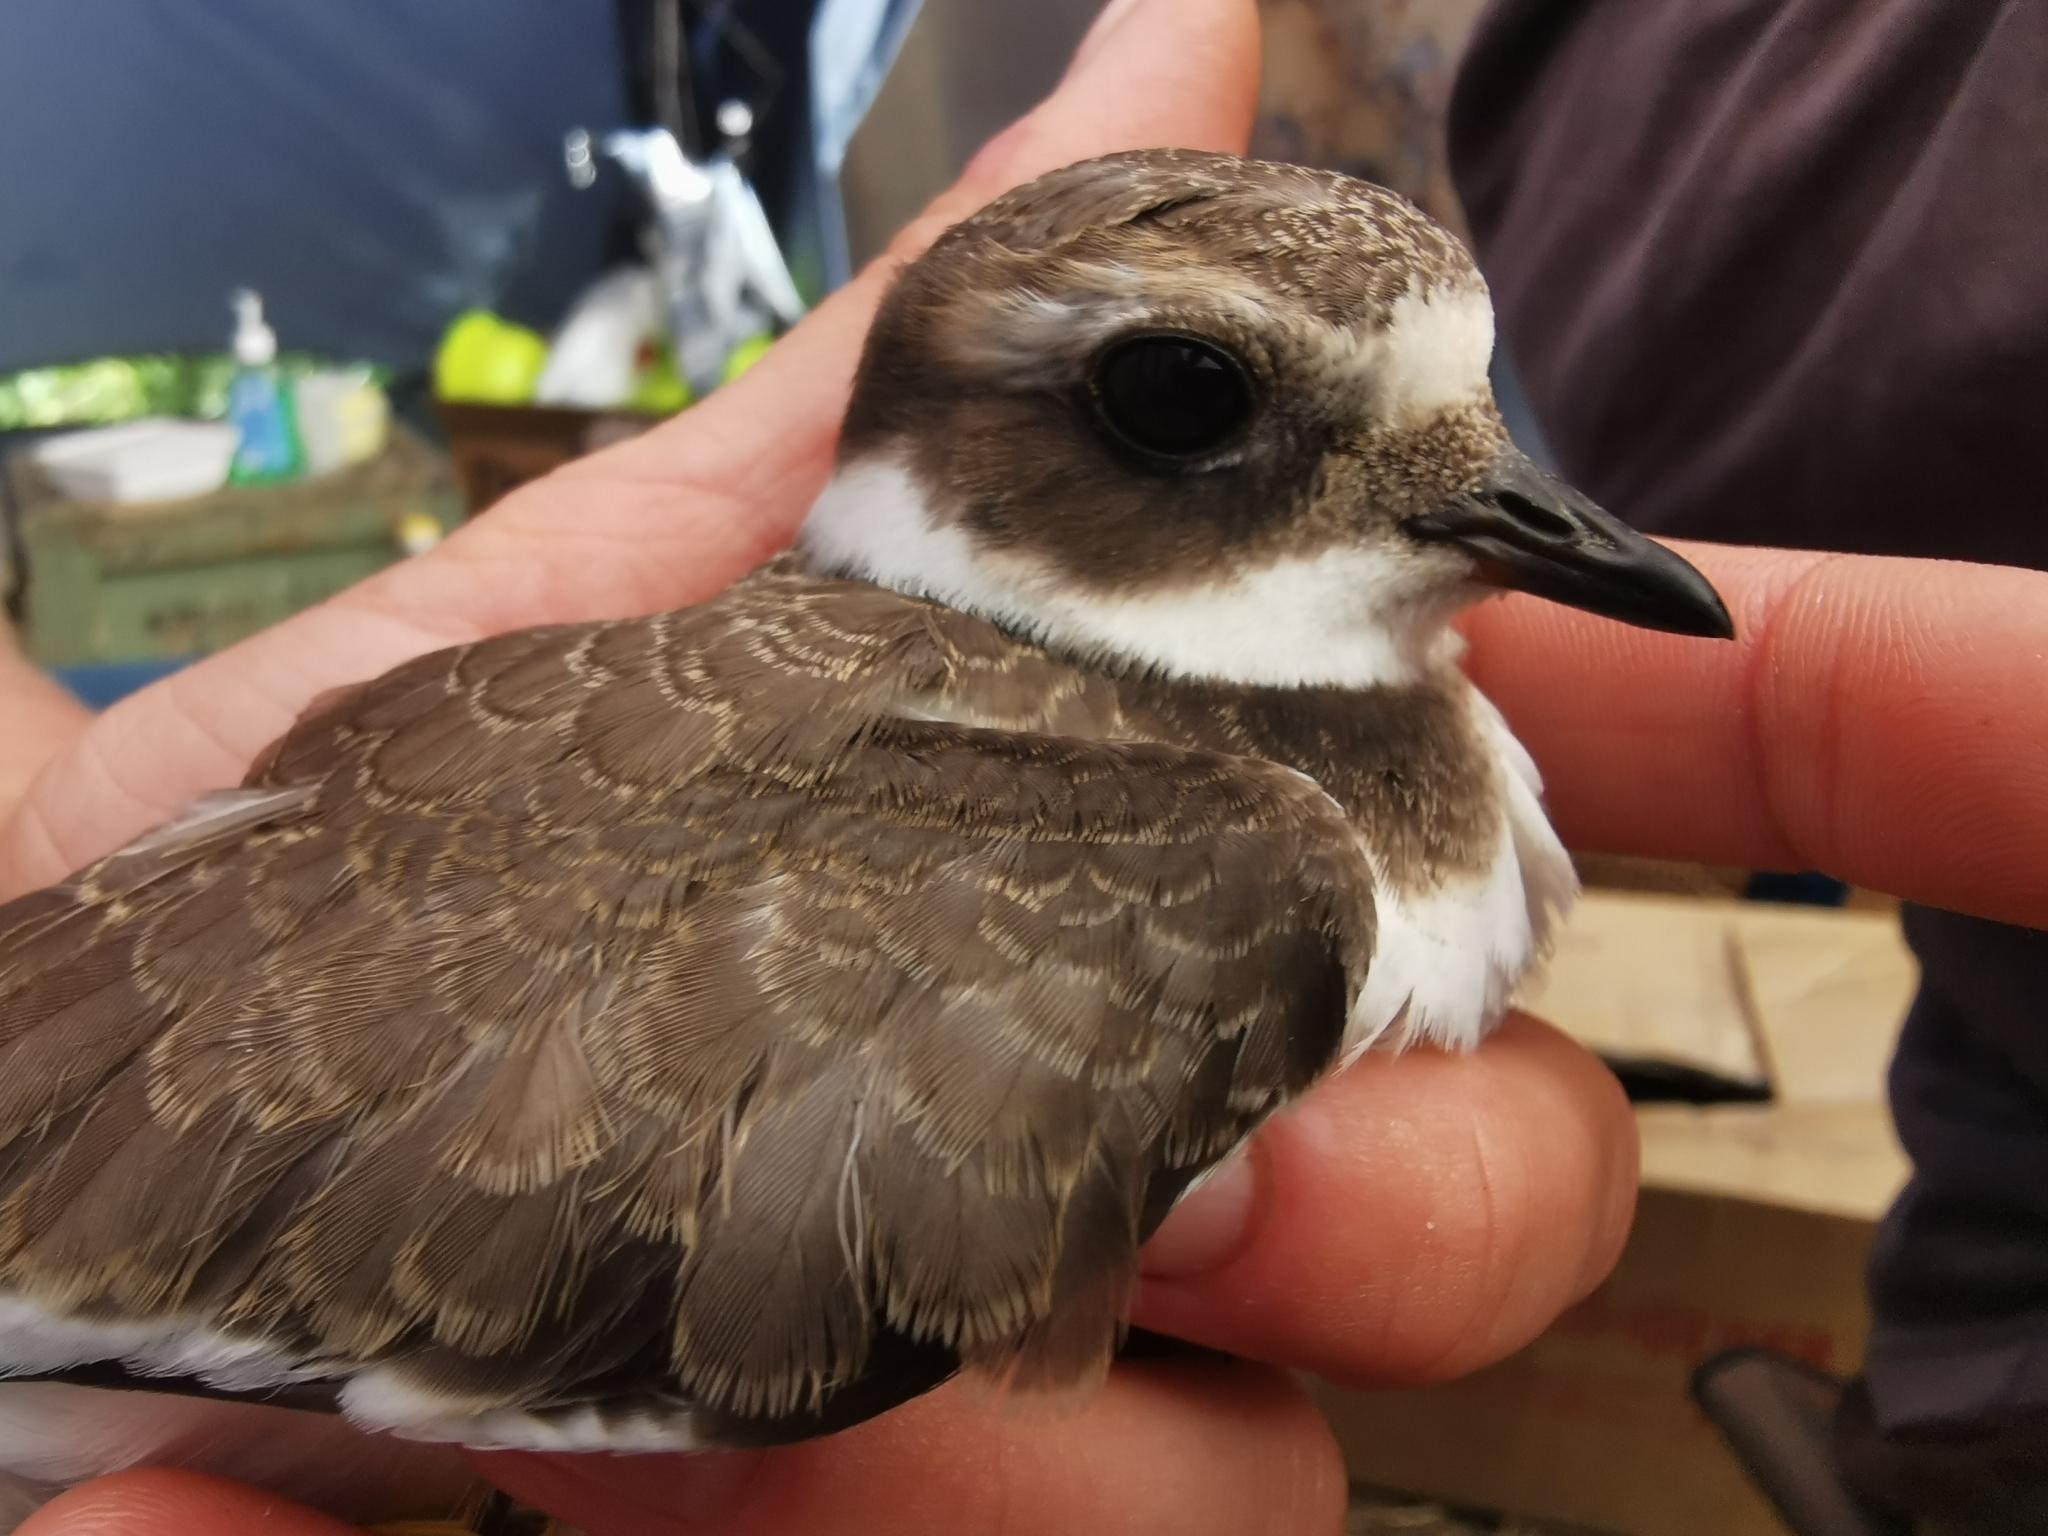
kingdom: Animalia
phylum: Chordata
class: Aves
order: Charadriiformes
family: Charadriidae
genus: Charadrius
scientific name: Charadrius hiaticula
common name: Common ringed plover
